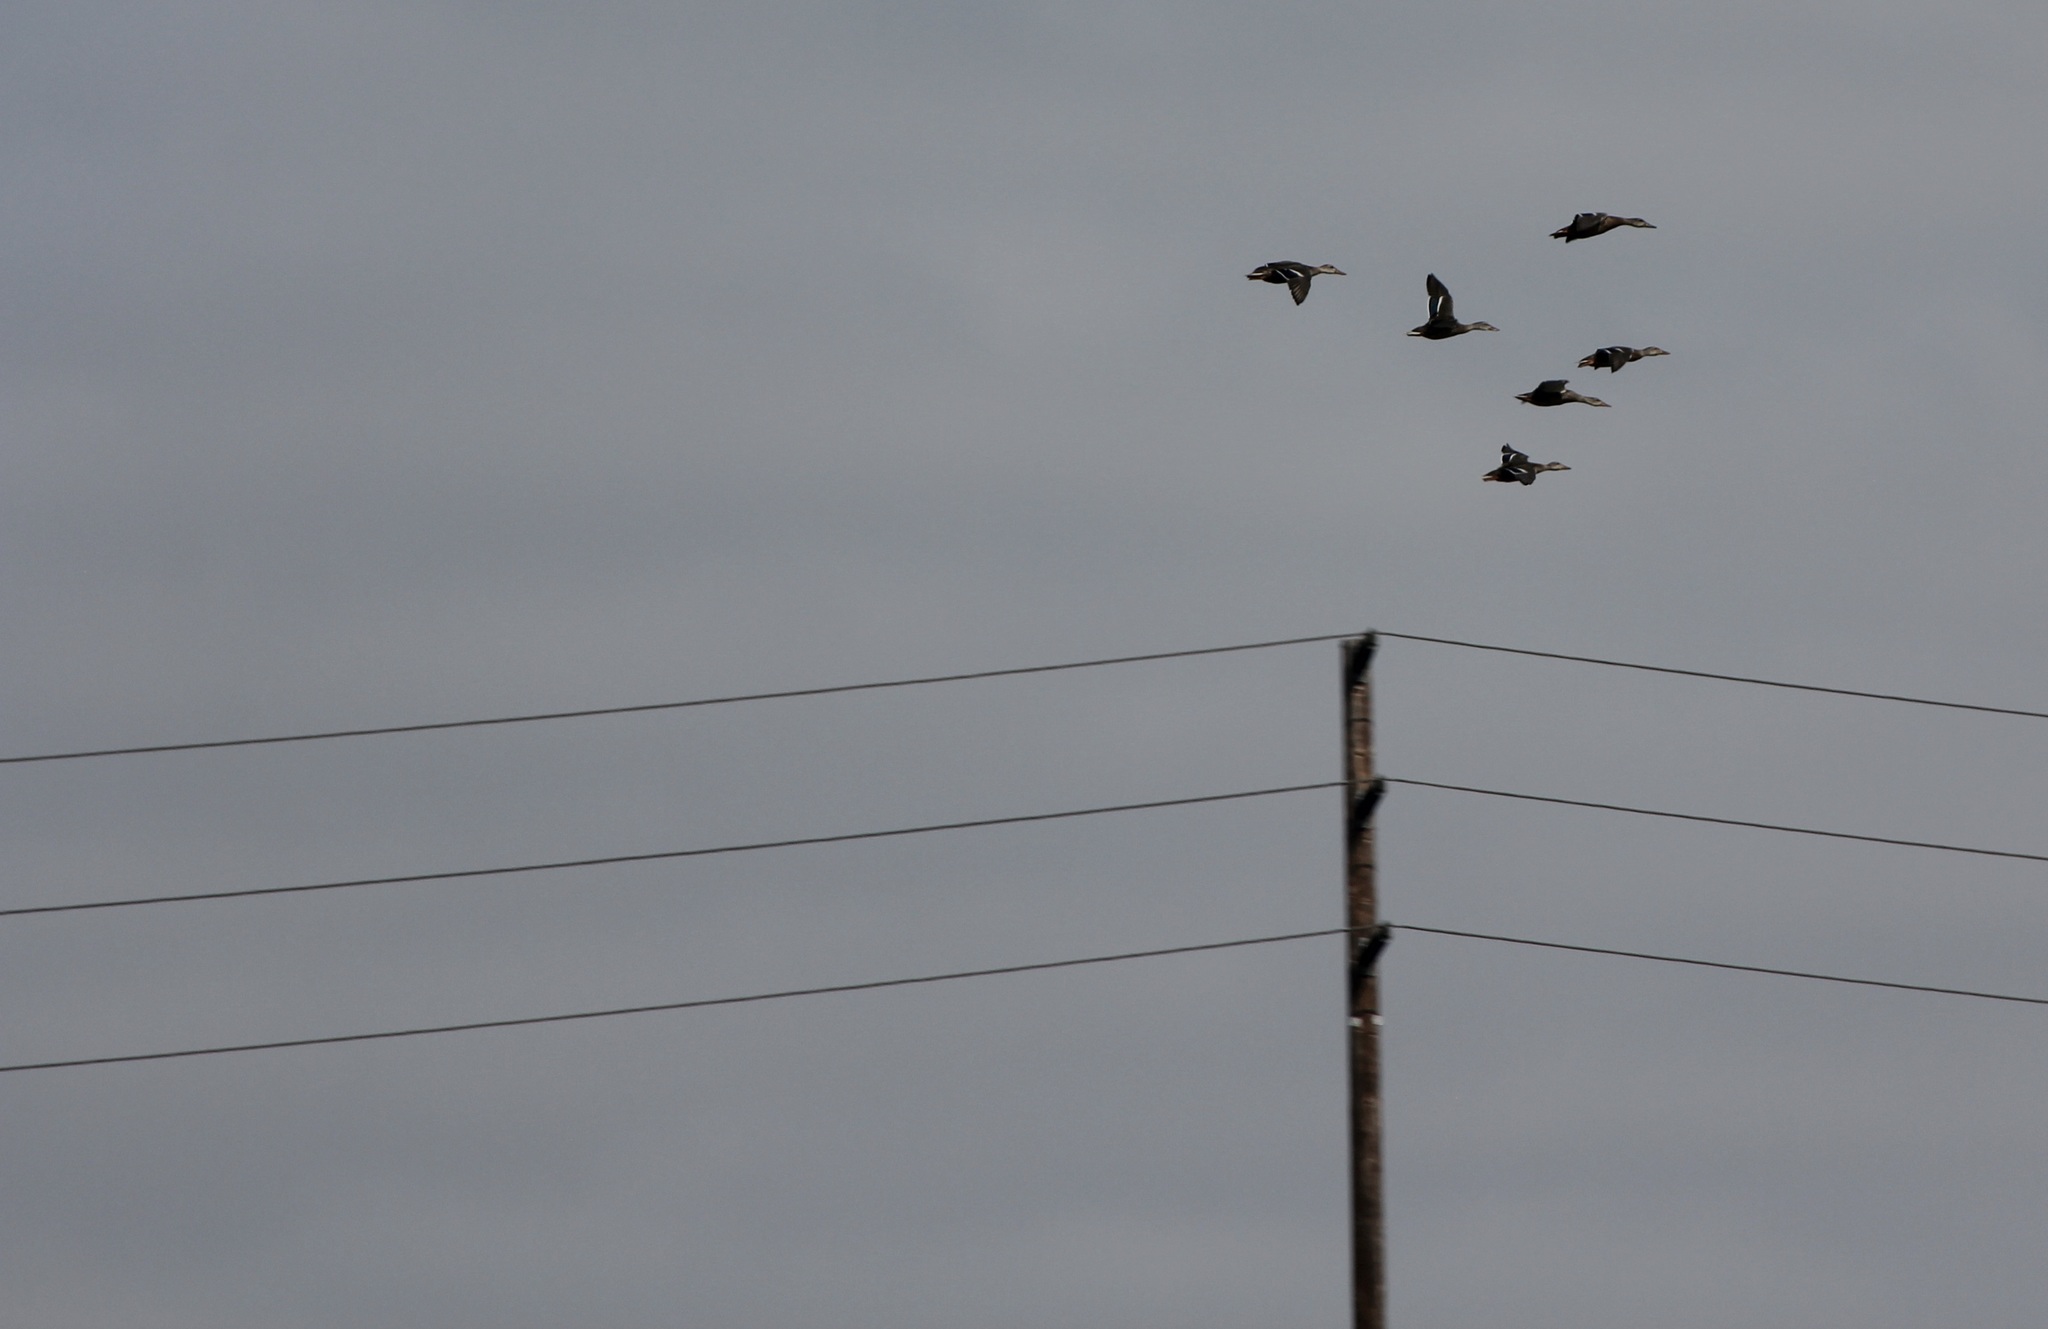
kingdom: Animalia
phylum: Chordata
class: Aves
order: Anseriformes
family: Anatidae
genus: Anas
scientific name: Anas platyrhynchos
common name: Mallard
